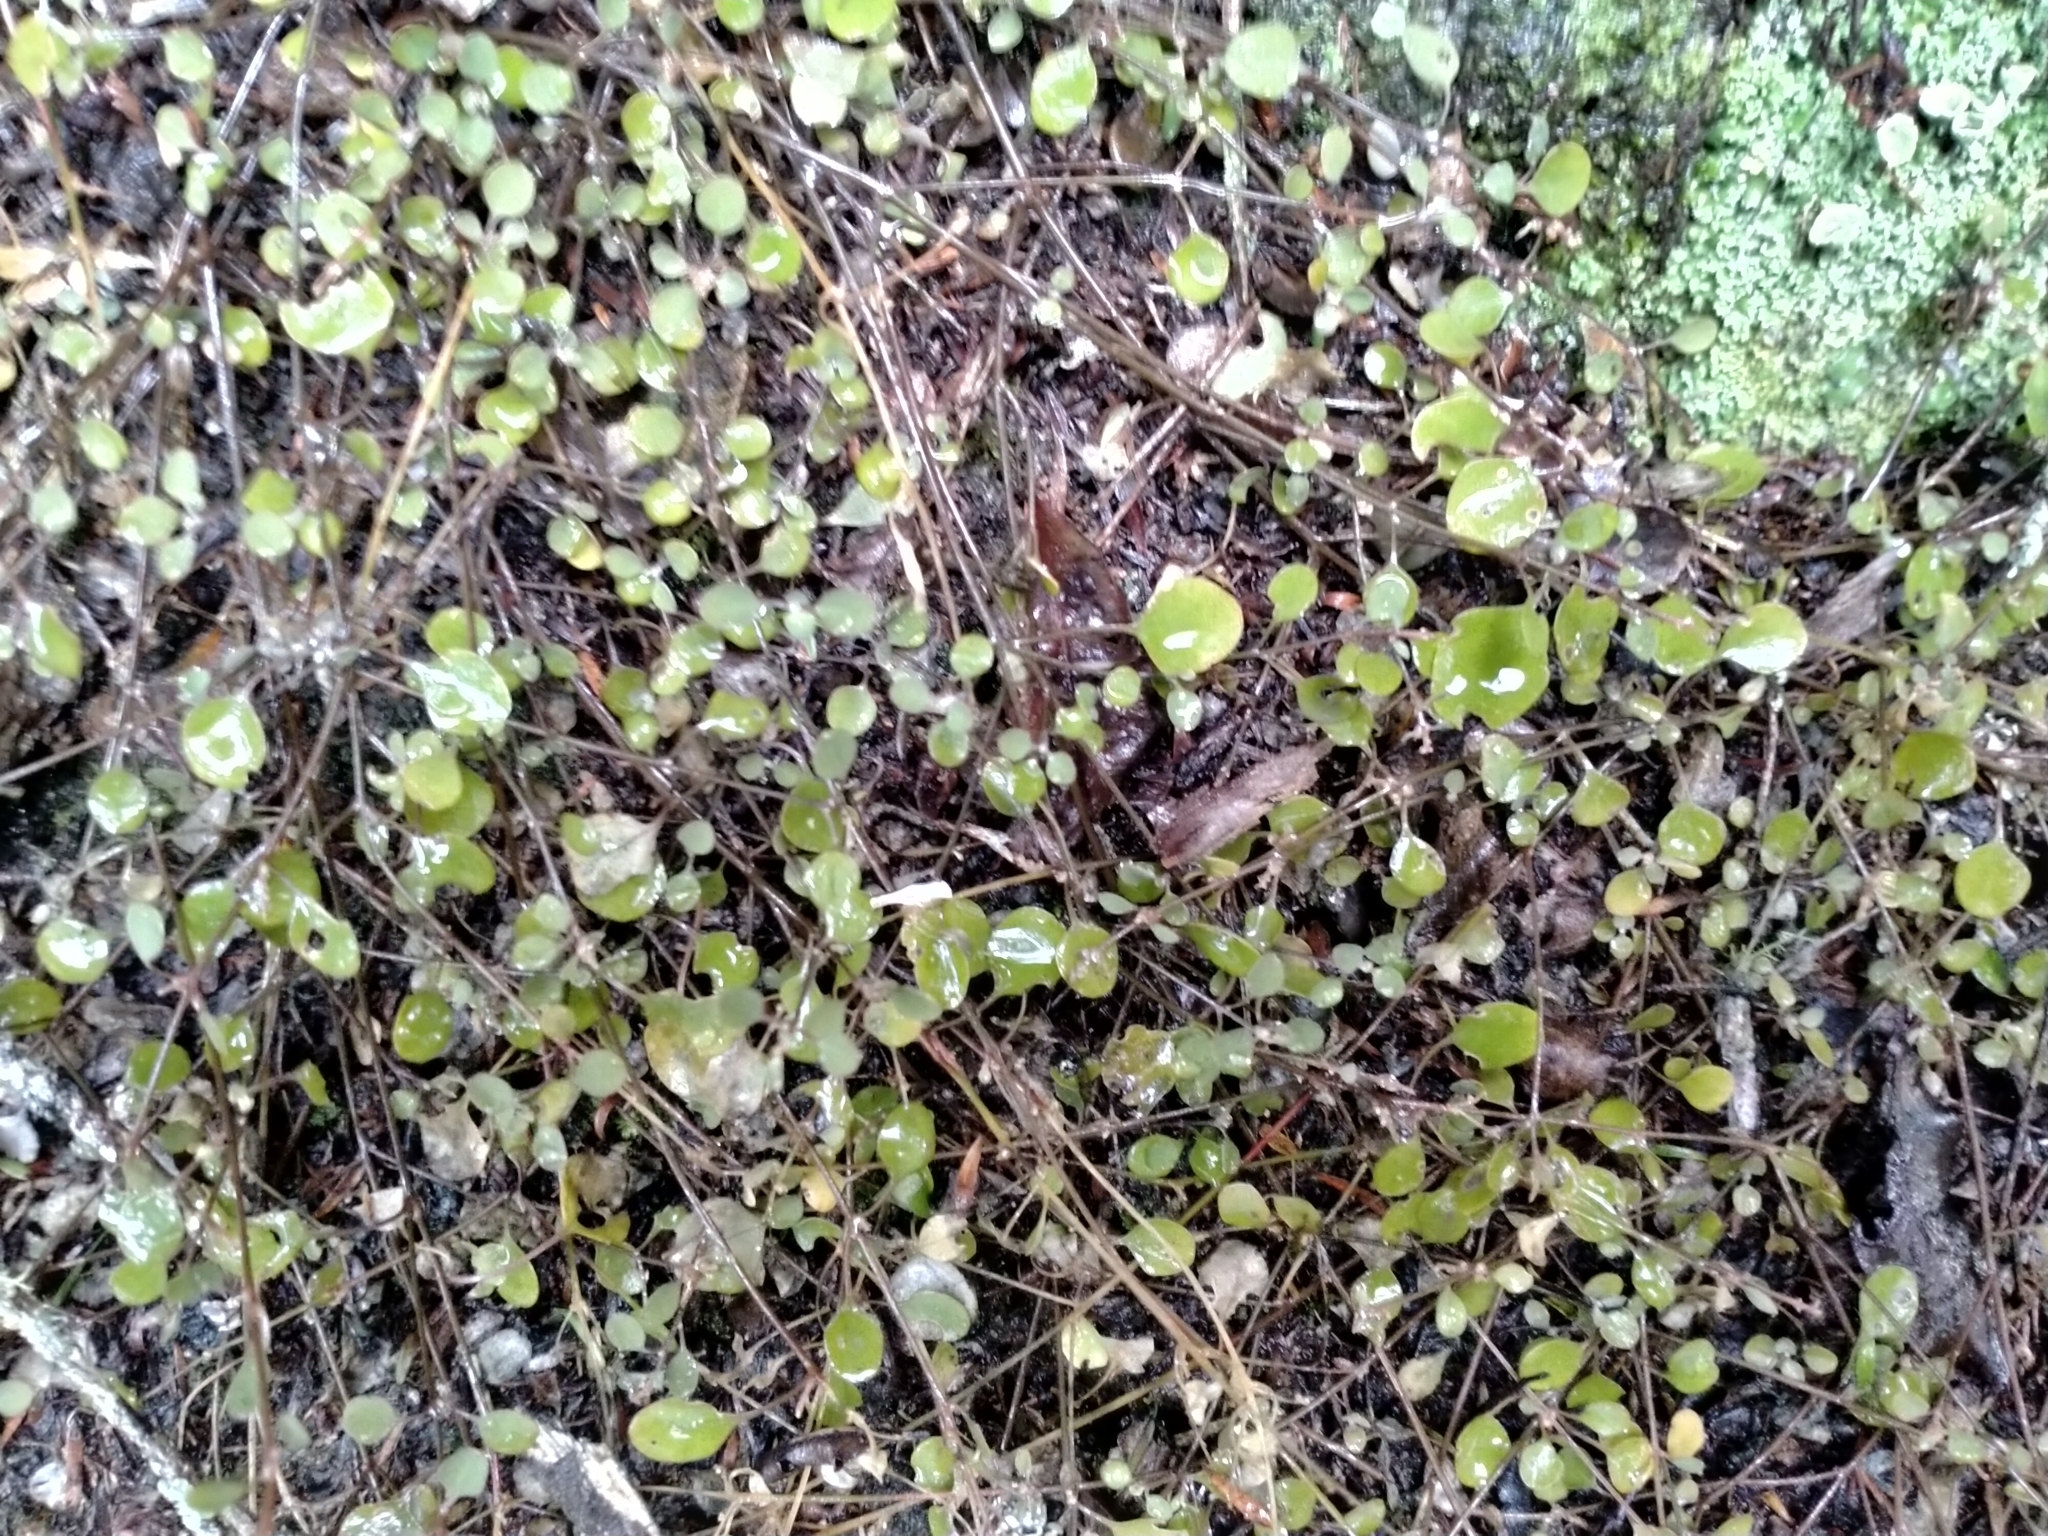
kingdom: Plantae
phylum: Tracheophyta
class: Magnoliopsida
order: Caryophyllales
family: Amaranthaceae
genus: Chenopodium
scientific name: Chenopodium allanii
